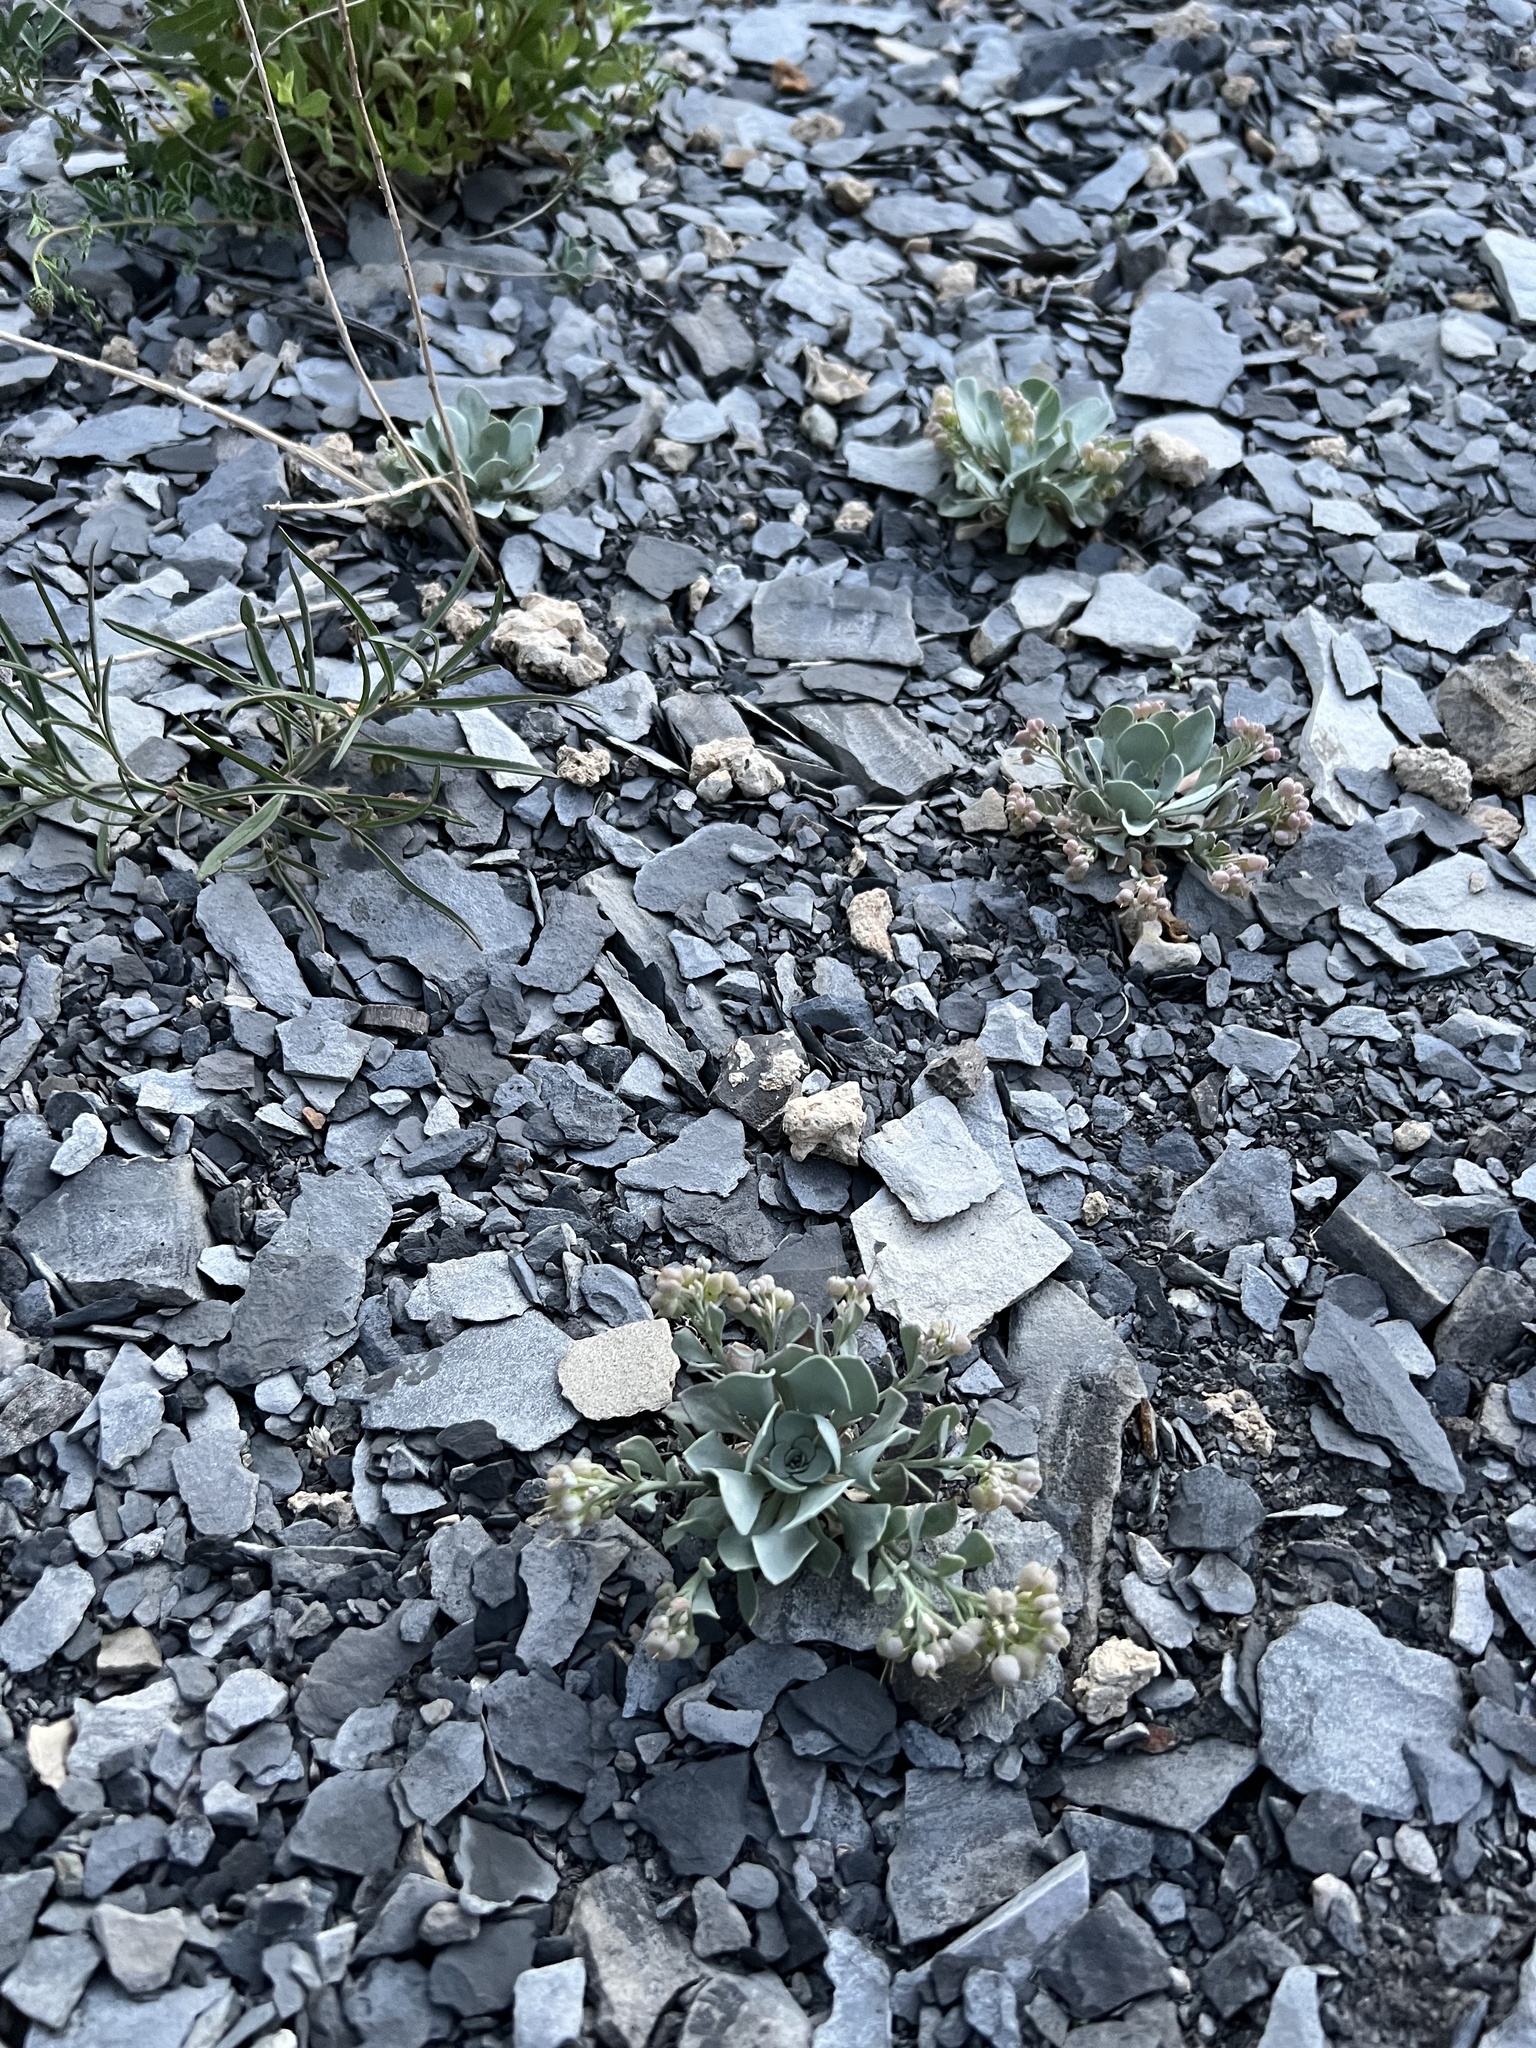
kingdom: Plantae
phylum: Tracheophyta
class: Magnoliopsida
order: Brassicales
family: Brassicaceae
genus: Physaria
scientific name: Physaria bellii
